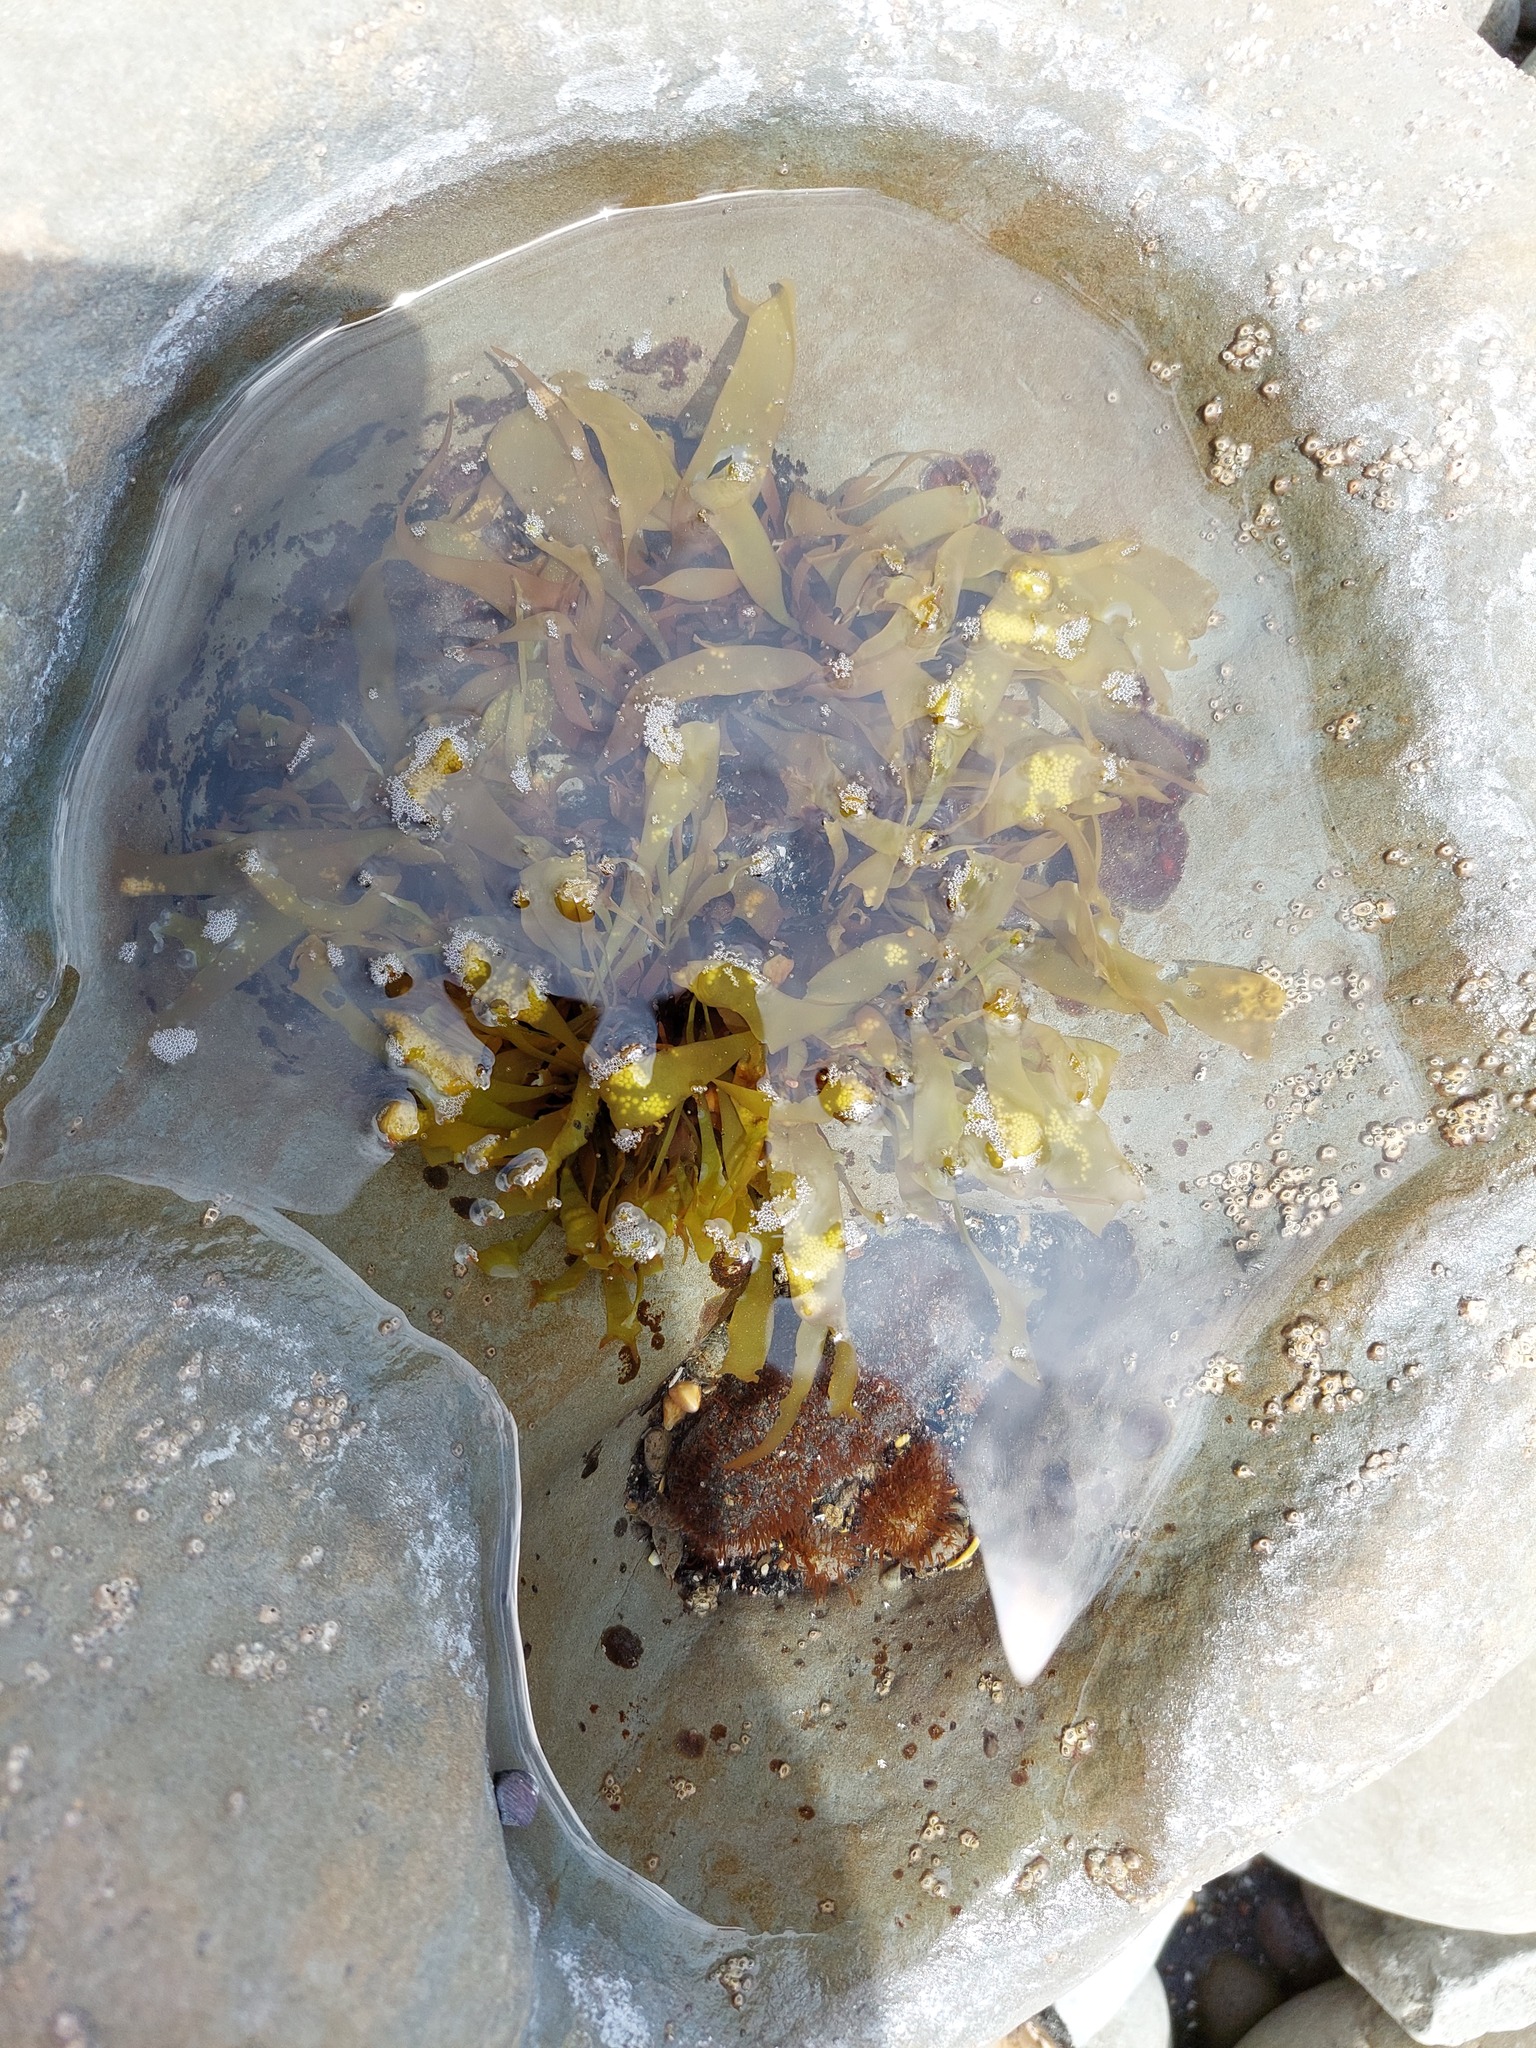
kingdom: Chromista
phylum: Ochrophyta
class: Phaeophyceae
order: Scytosiphonales
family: Scytosiphonaceae
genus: Petalonia
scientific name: Petalonia binghamiae
